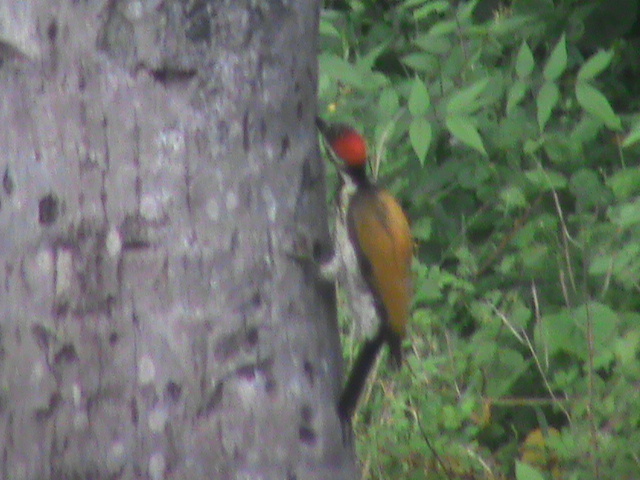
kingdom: Animalia
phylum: Chordata
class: Aves
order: Piciformes
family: Picidae
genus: Dinopium
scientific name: Dinopium benghalense
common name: Black-rumped flameback
